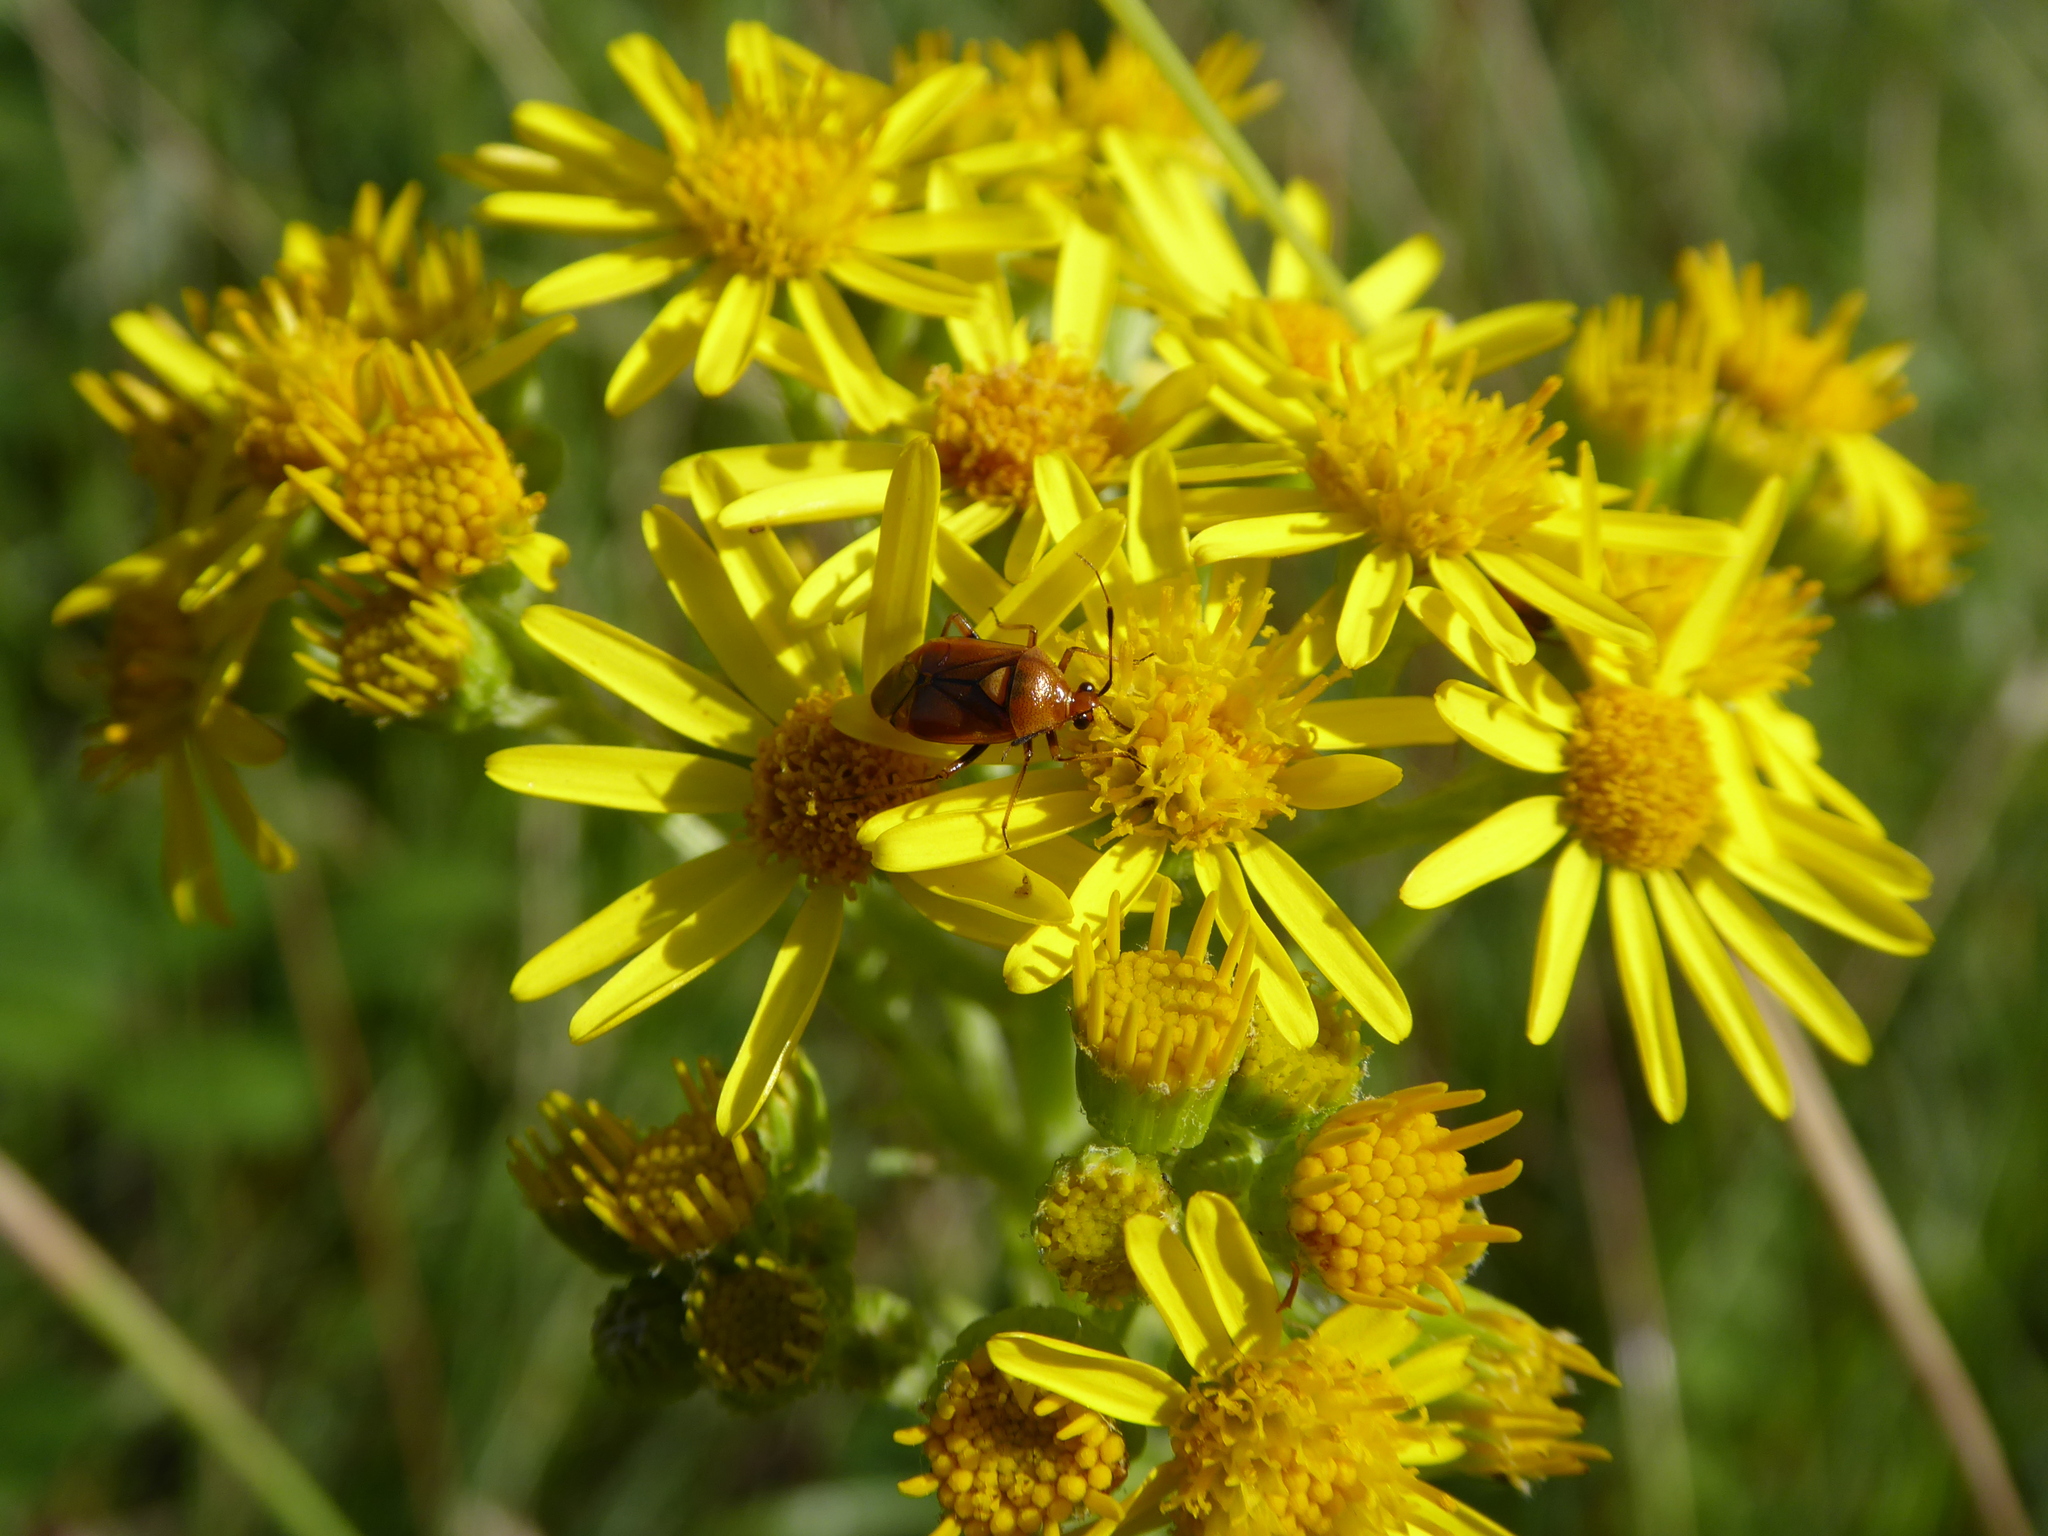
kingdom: Animalia
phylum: Arthropoda
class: Insecta
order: Hemiptera
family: Miridae
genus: Deraeocoris
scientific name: Deraeocoris ruber
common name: Plant bug
